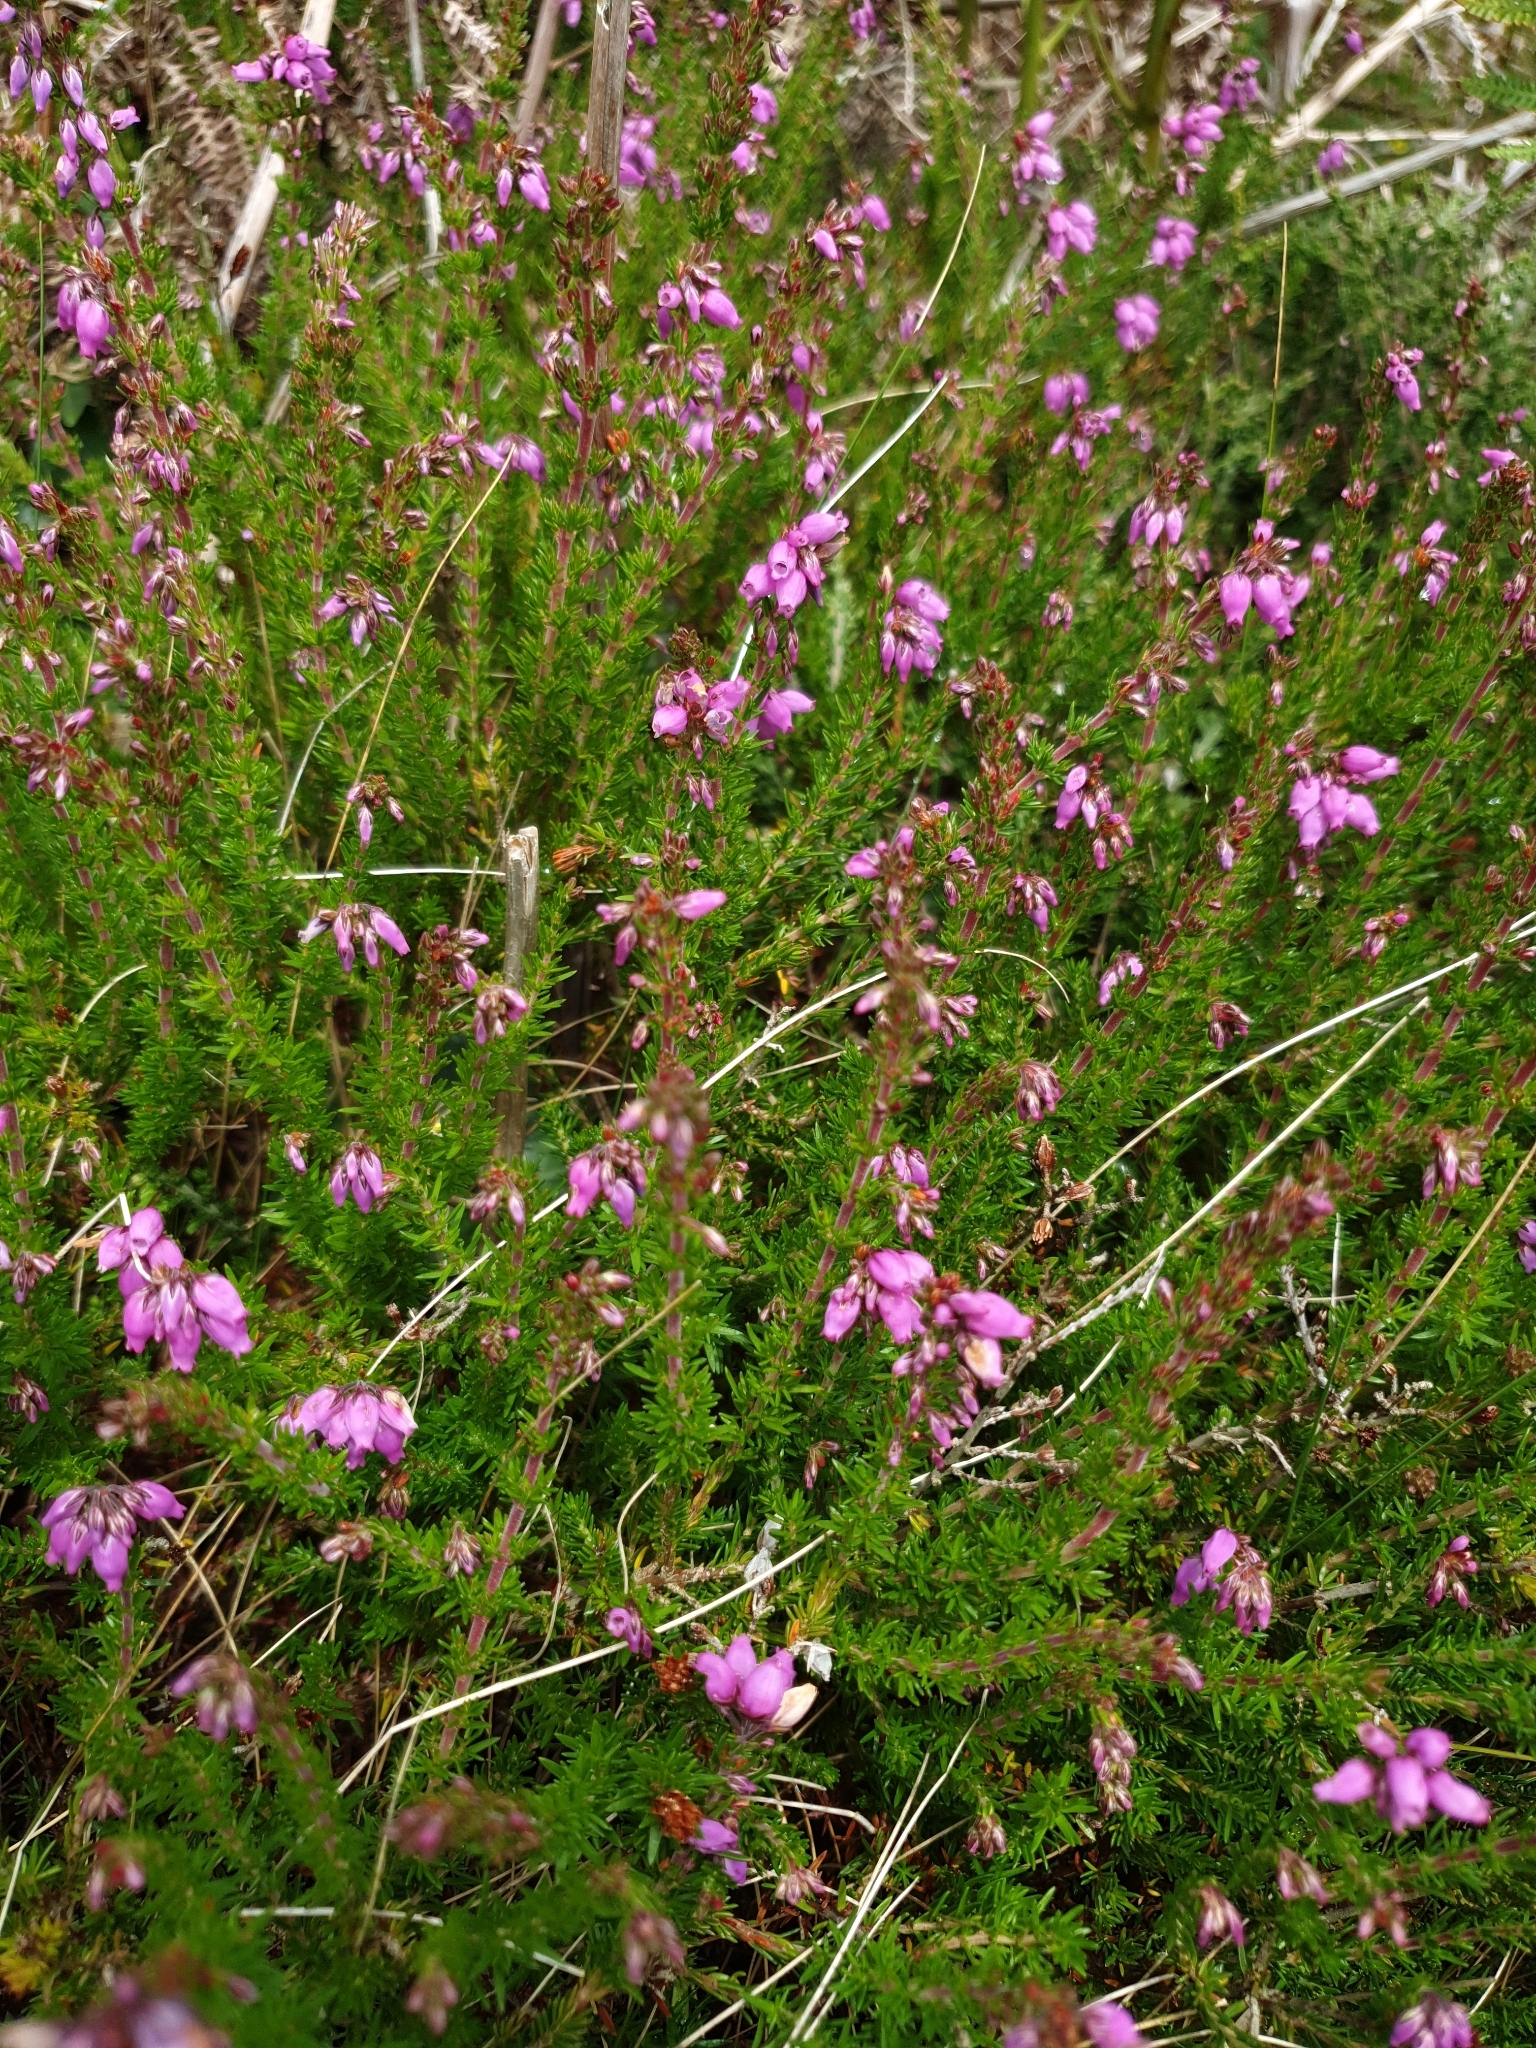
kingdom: Plantae
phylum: Tracheophyta
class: Magnoliopsida
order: Ericales
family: Ericaceae
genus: Erica
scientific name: Erica cinerea
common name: Bell heather
